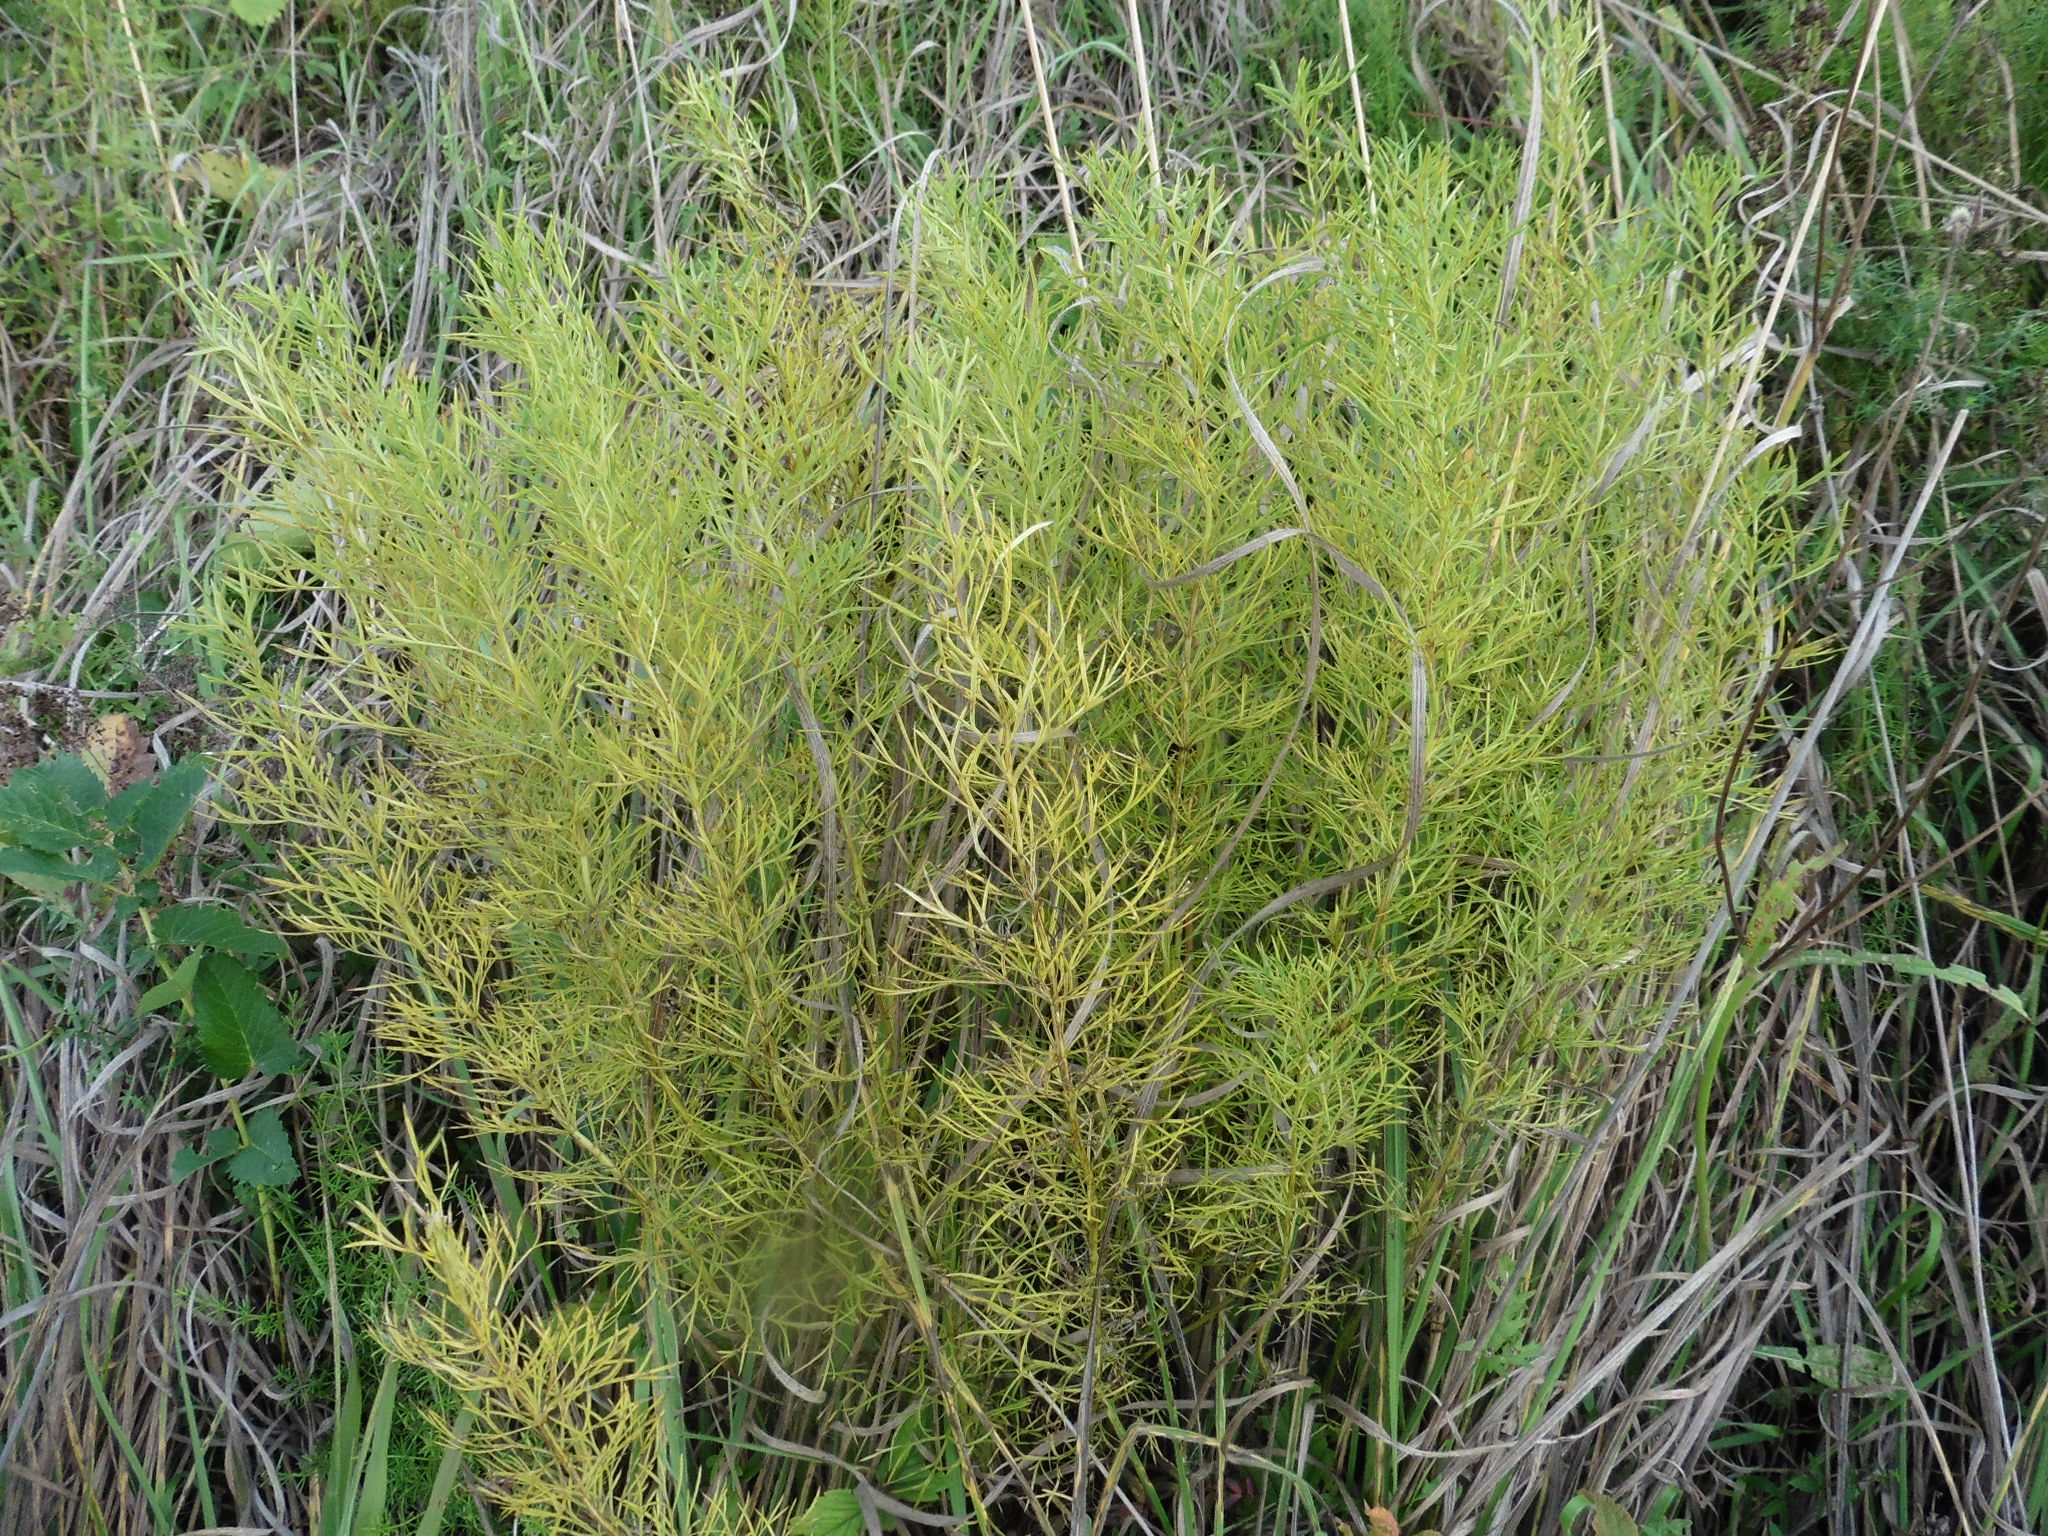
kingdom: Plantae
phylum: Tracheophyta
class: Magnoliopsida
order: Ranunculales
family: Ranunculaceae
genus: Adonis
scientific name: Adonis vernalis
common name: Yellow pheasants-eye
